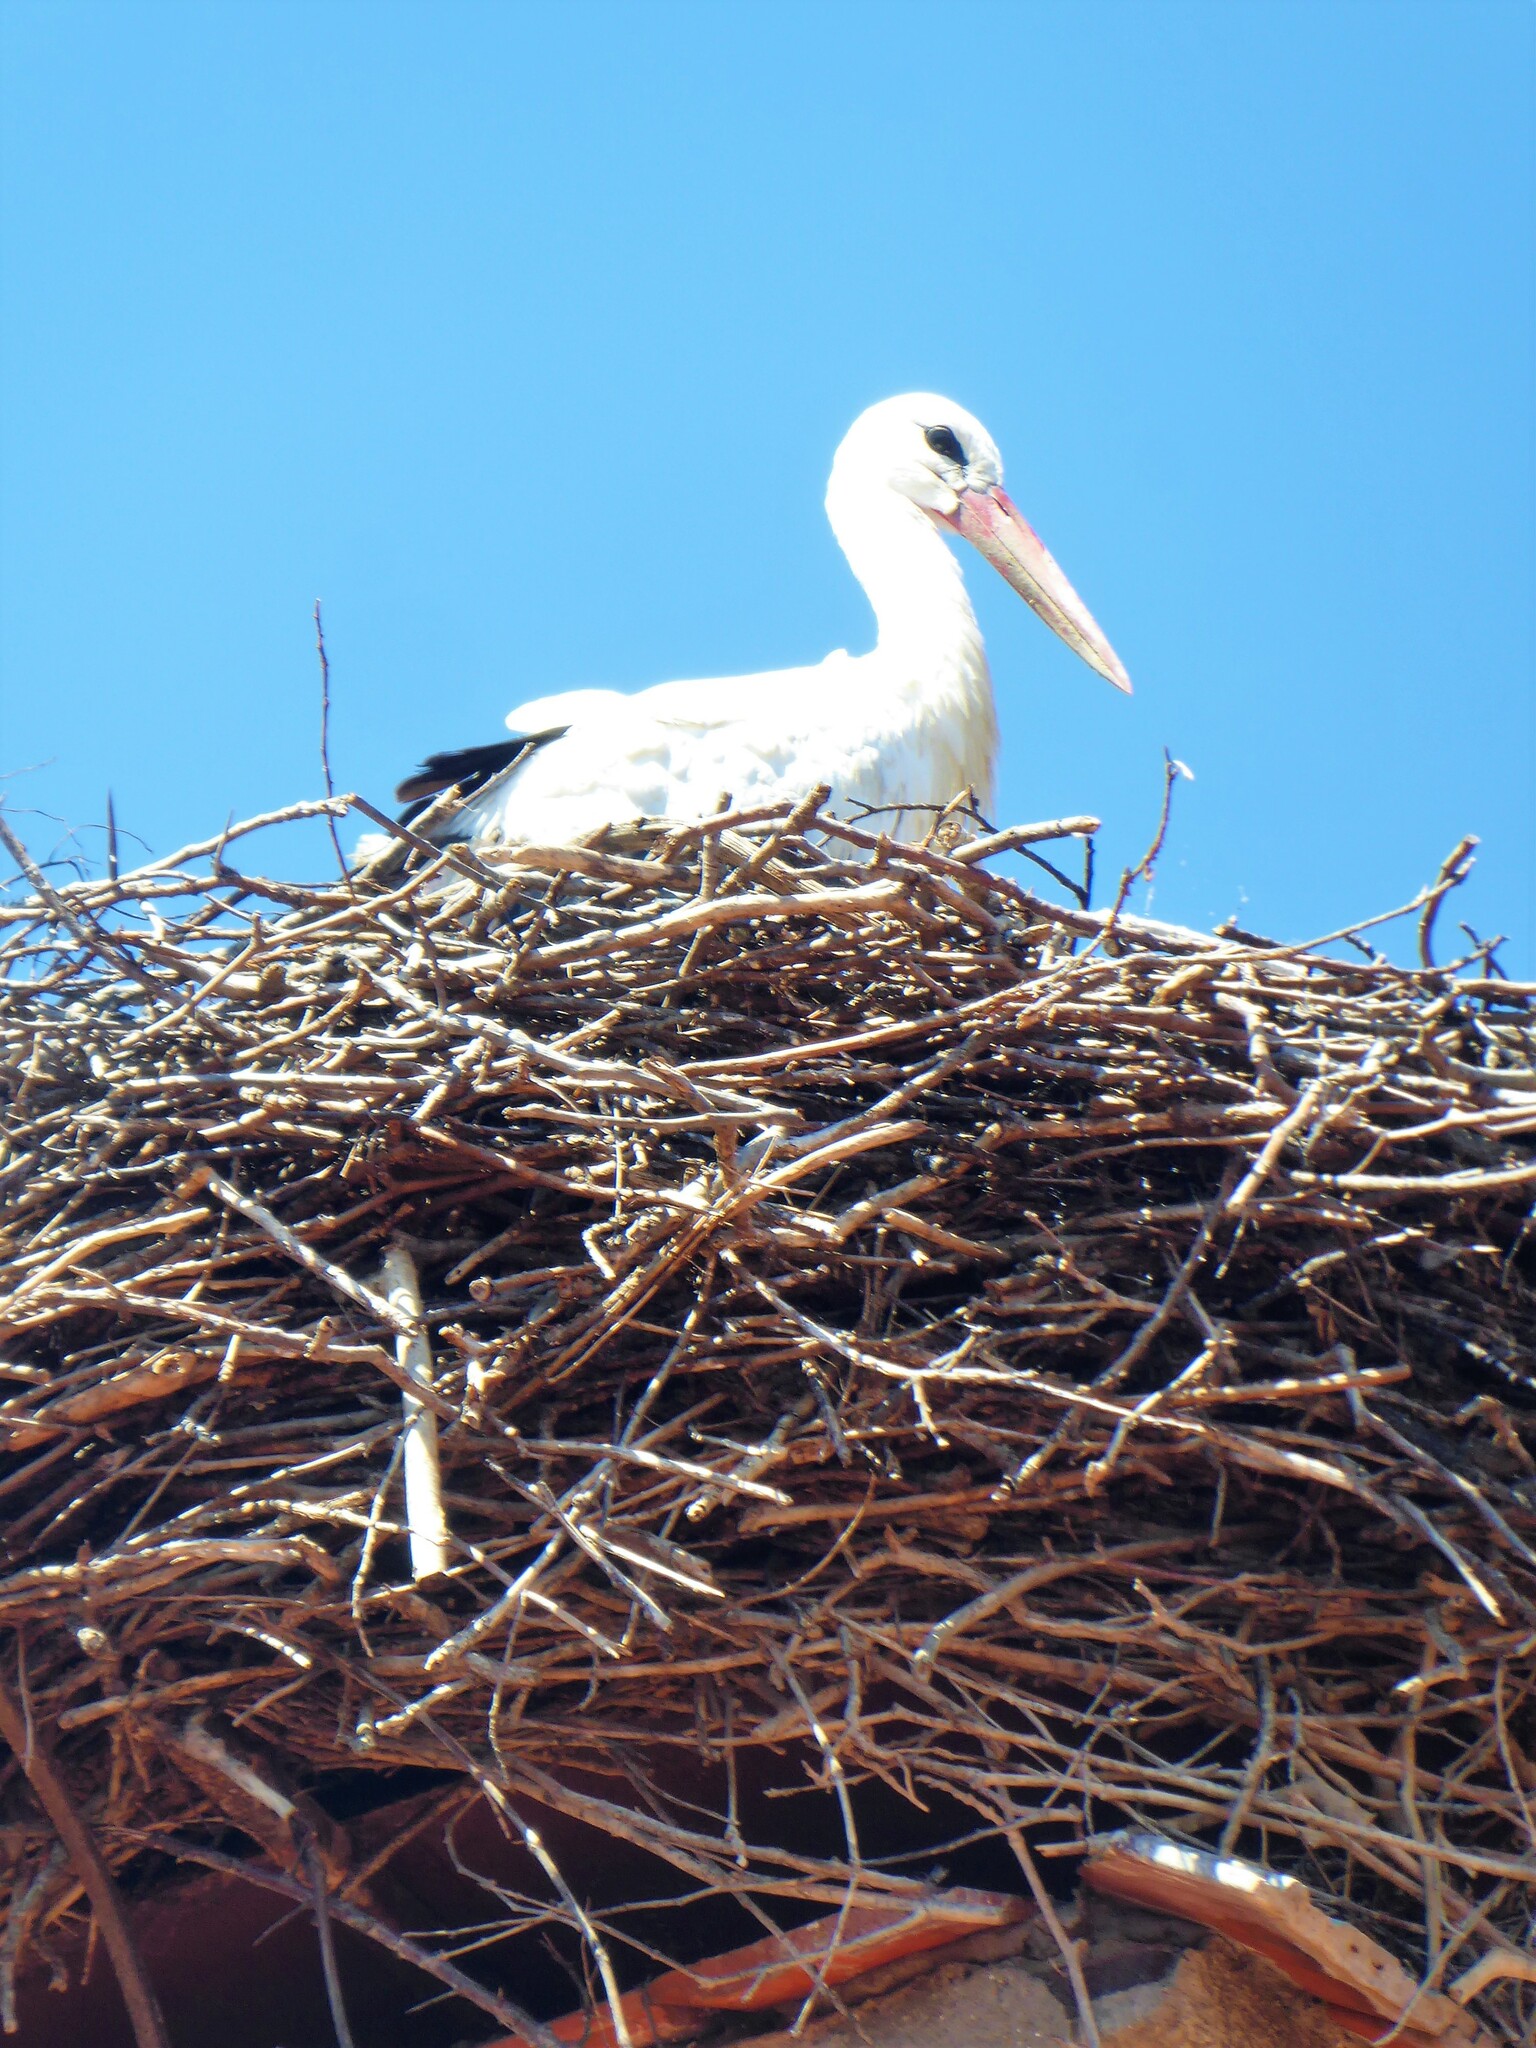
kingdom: Animalia
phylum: Chordata
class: Aves
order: Ciconiiformes
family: Ciconiidae
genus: Ciconia
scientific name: Ciconia ciconia
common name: White stork
